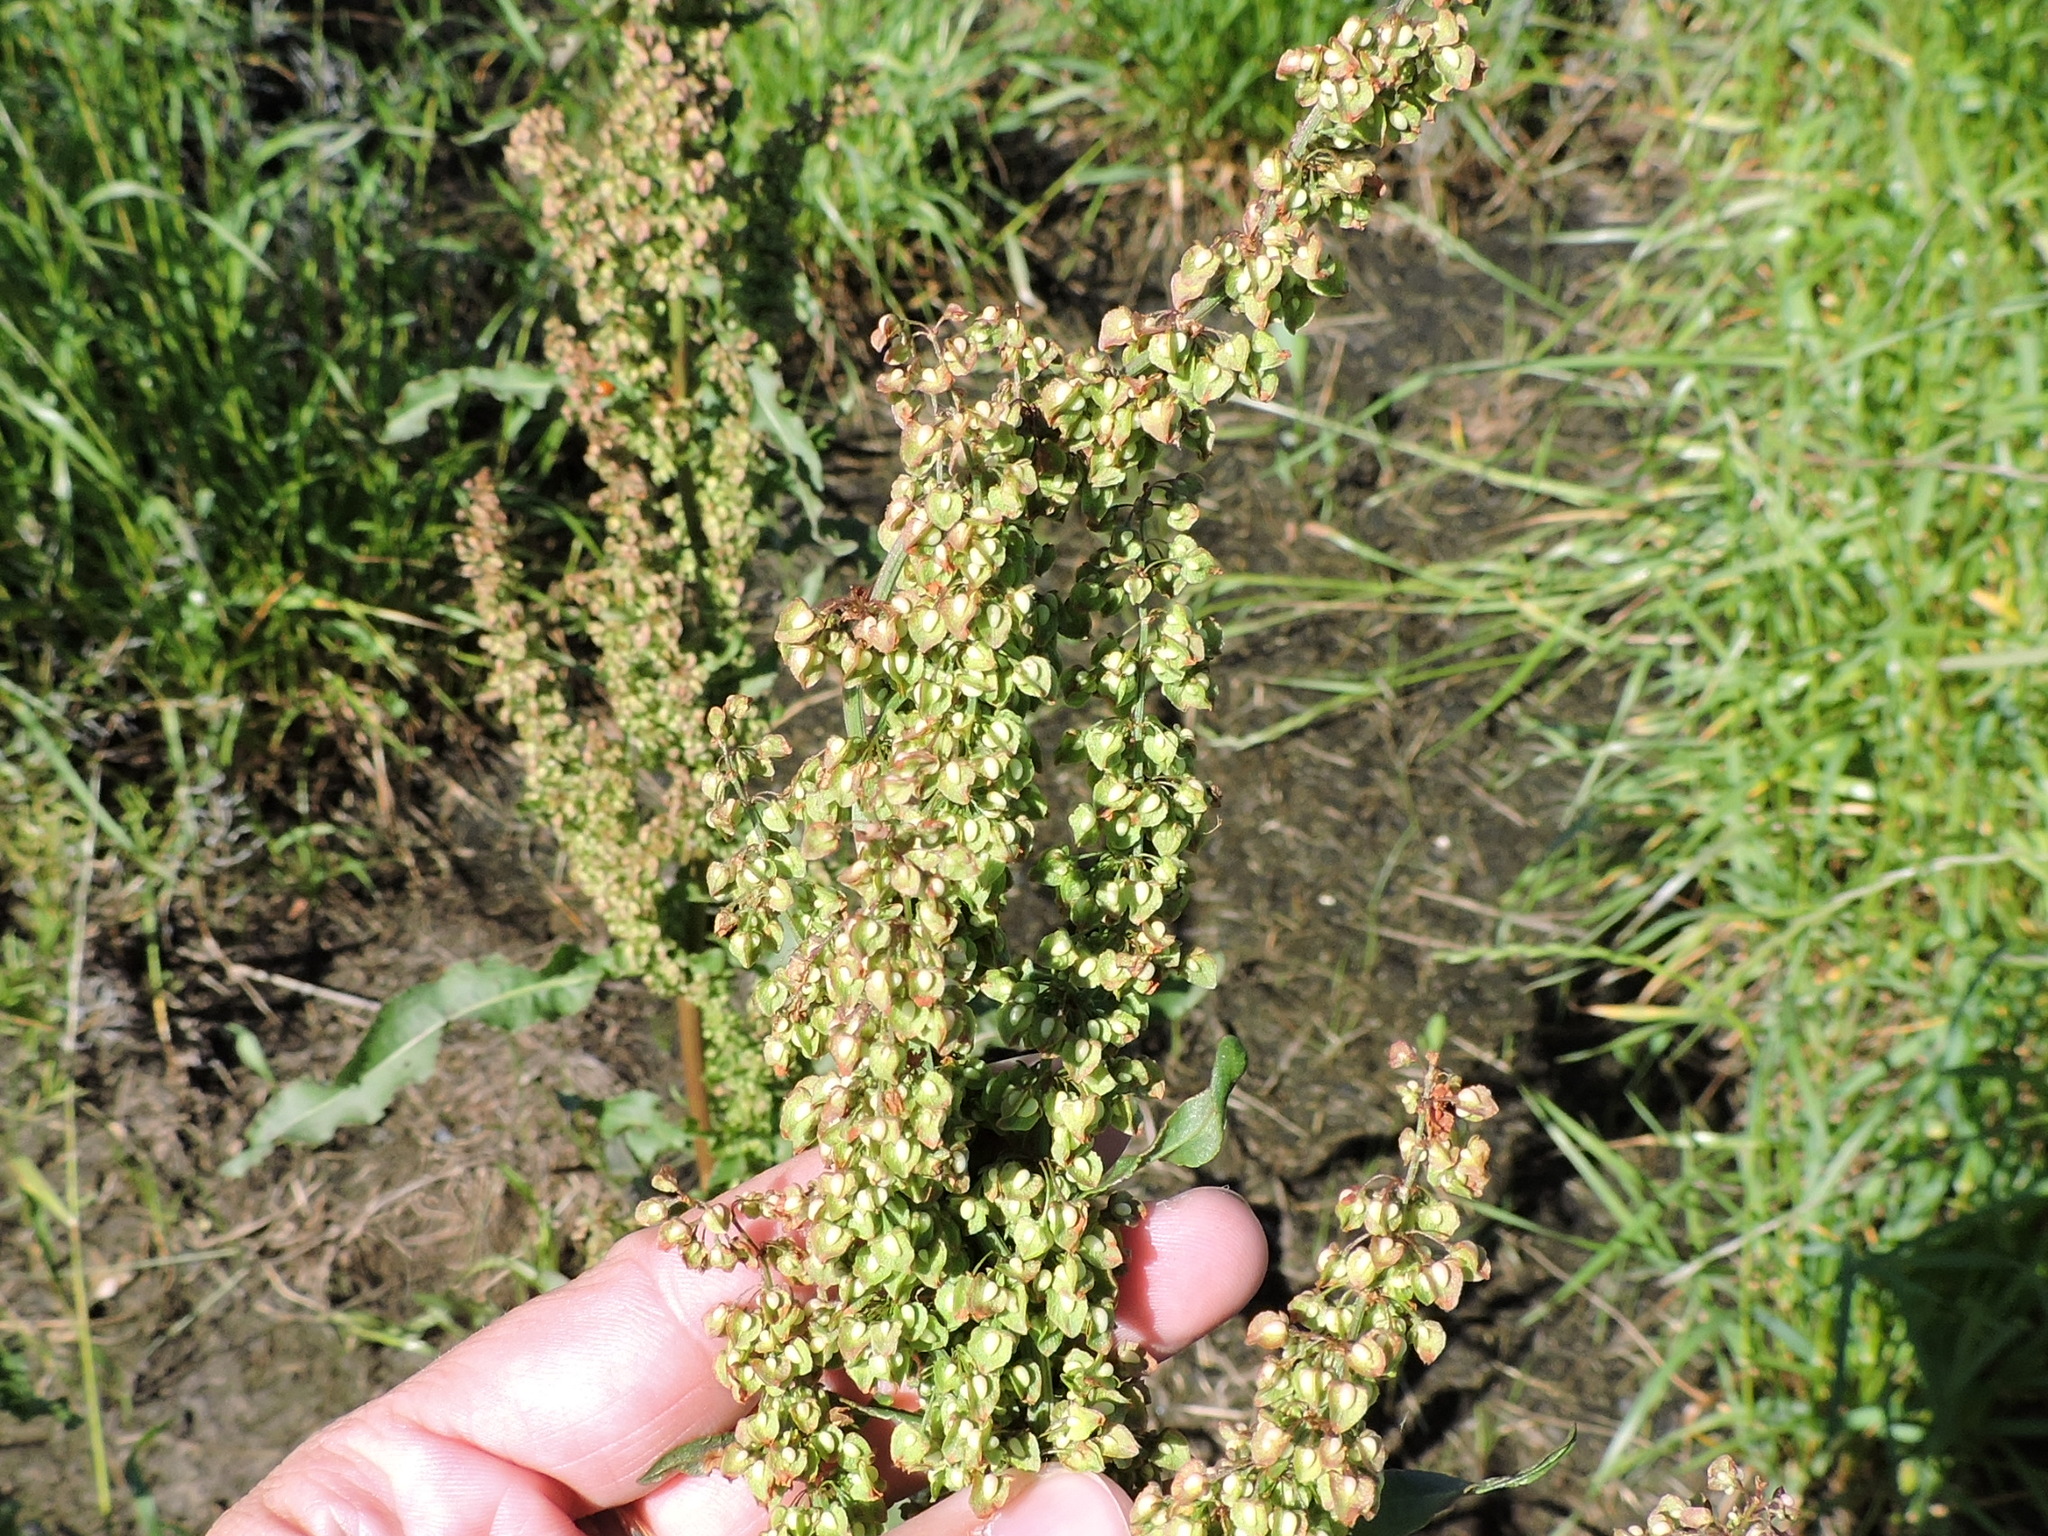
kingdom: Plantae
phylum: Tracheophyta
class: Magnoliopsida
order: Caryophyllales
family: Polygonaceae
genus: Rumex
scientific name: Rumex crispus
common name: Curled dock
